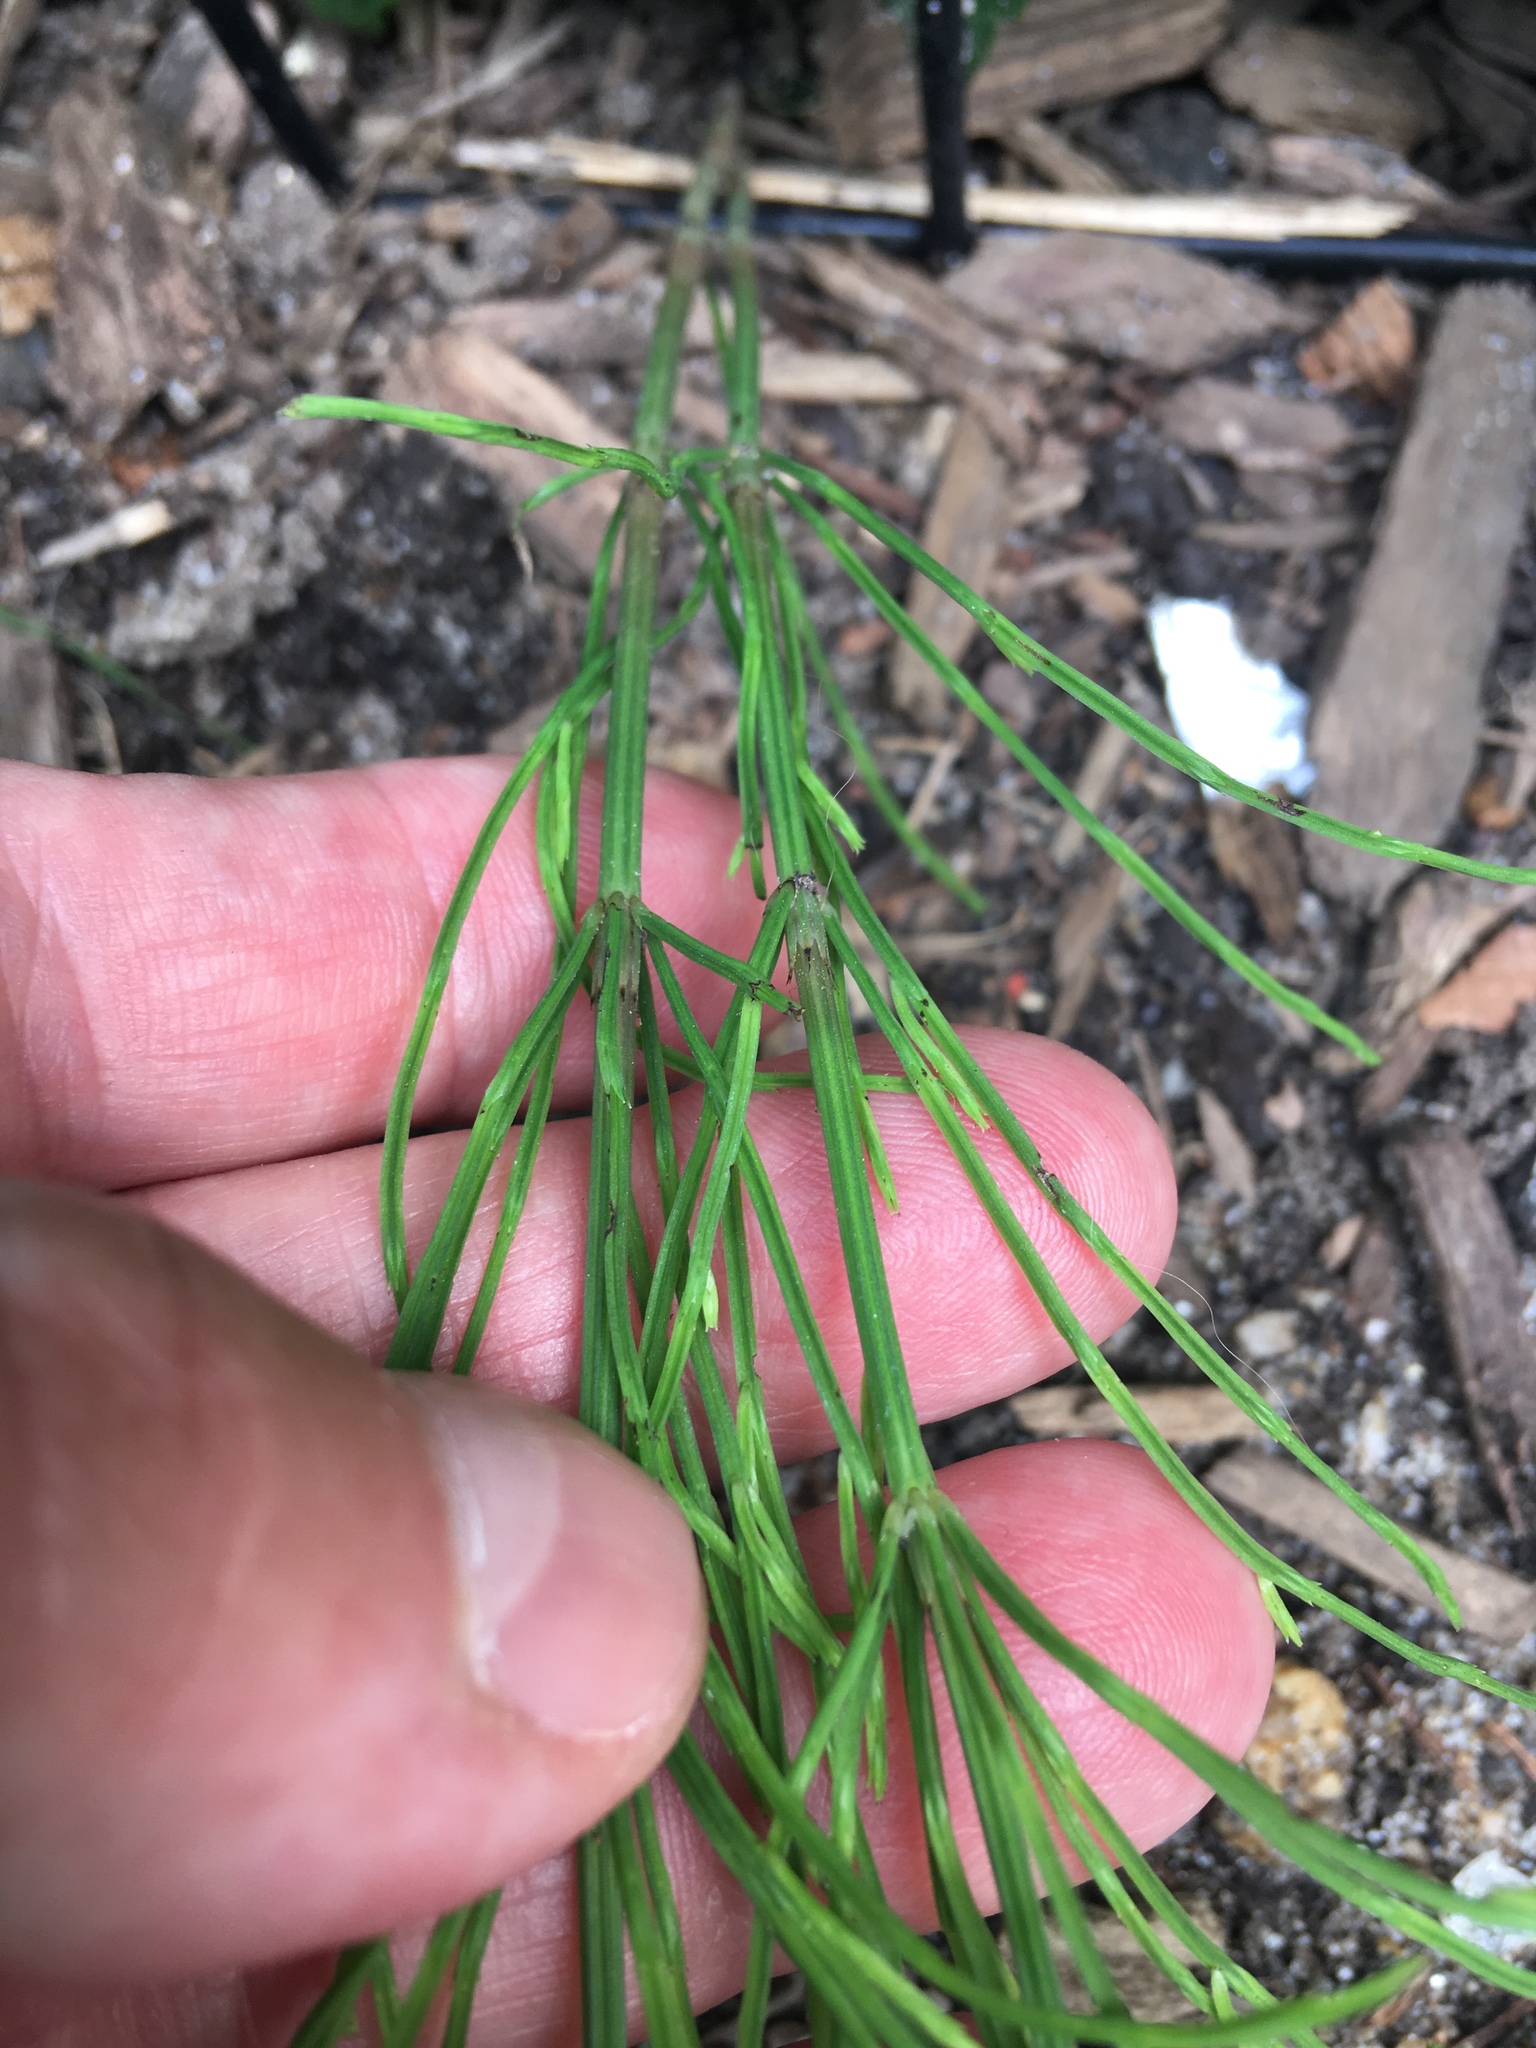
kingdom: Plantae
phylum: Tracheophyta
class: Polypodiopsida
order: Equisetales
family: Equisetaceae
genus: Equisetum
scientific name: Equisetum arvense
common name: Field horsetail
